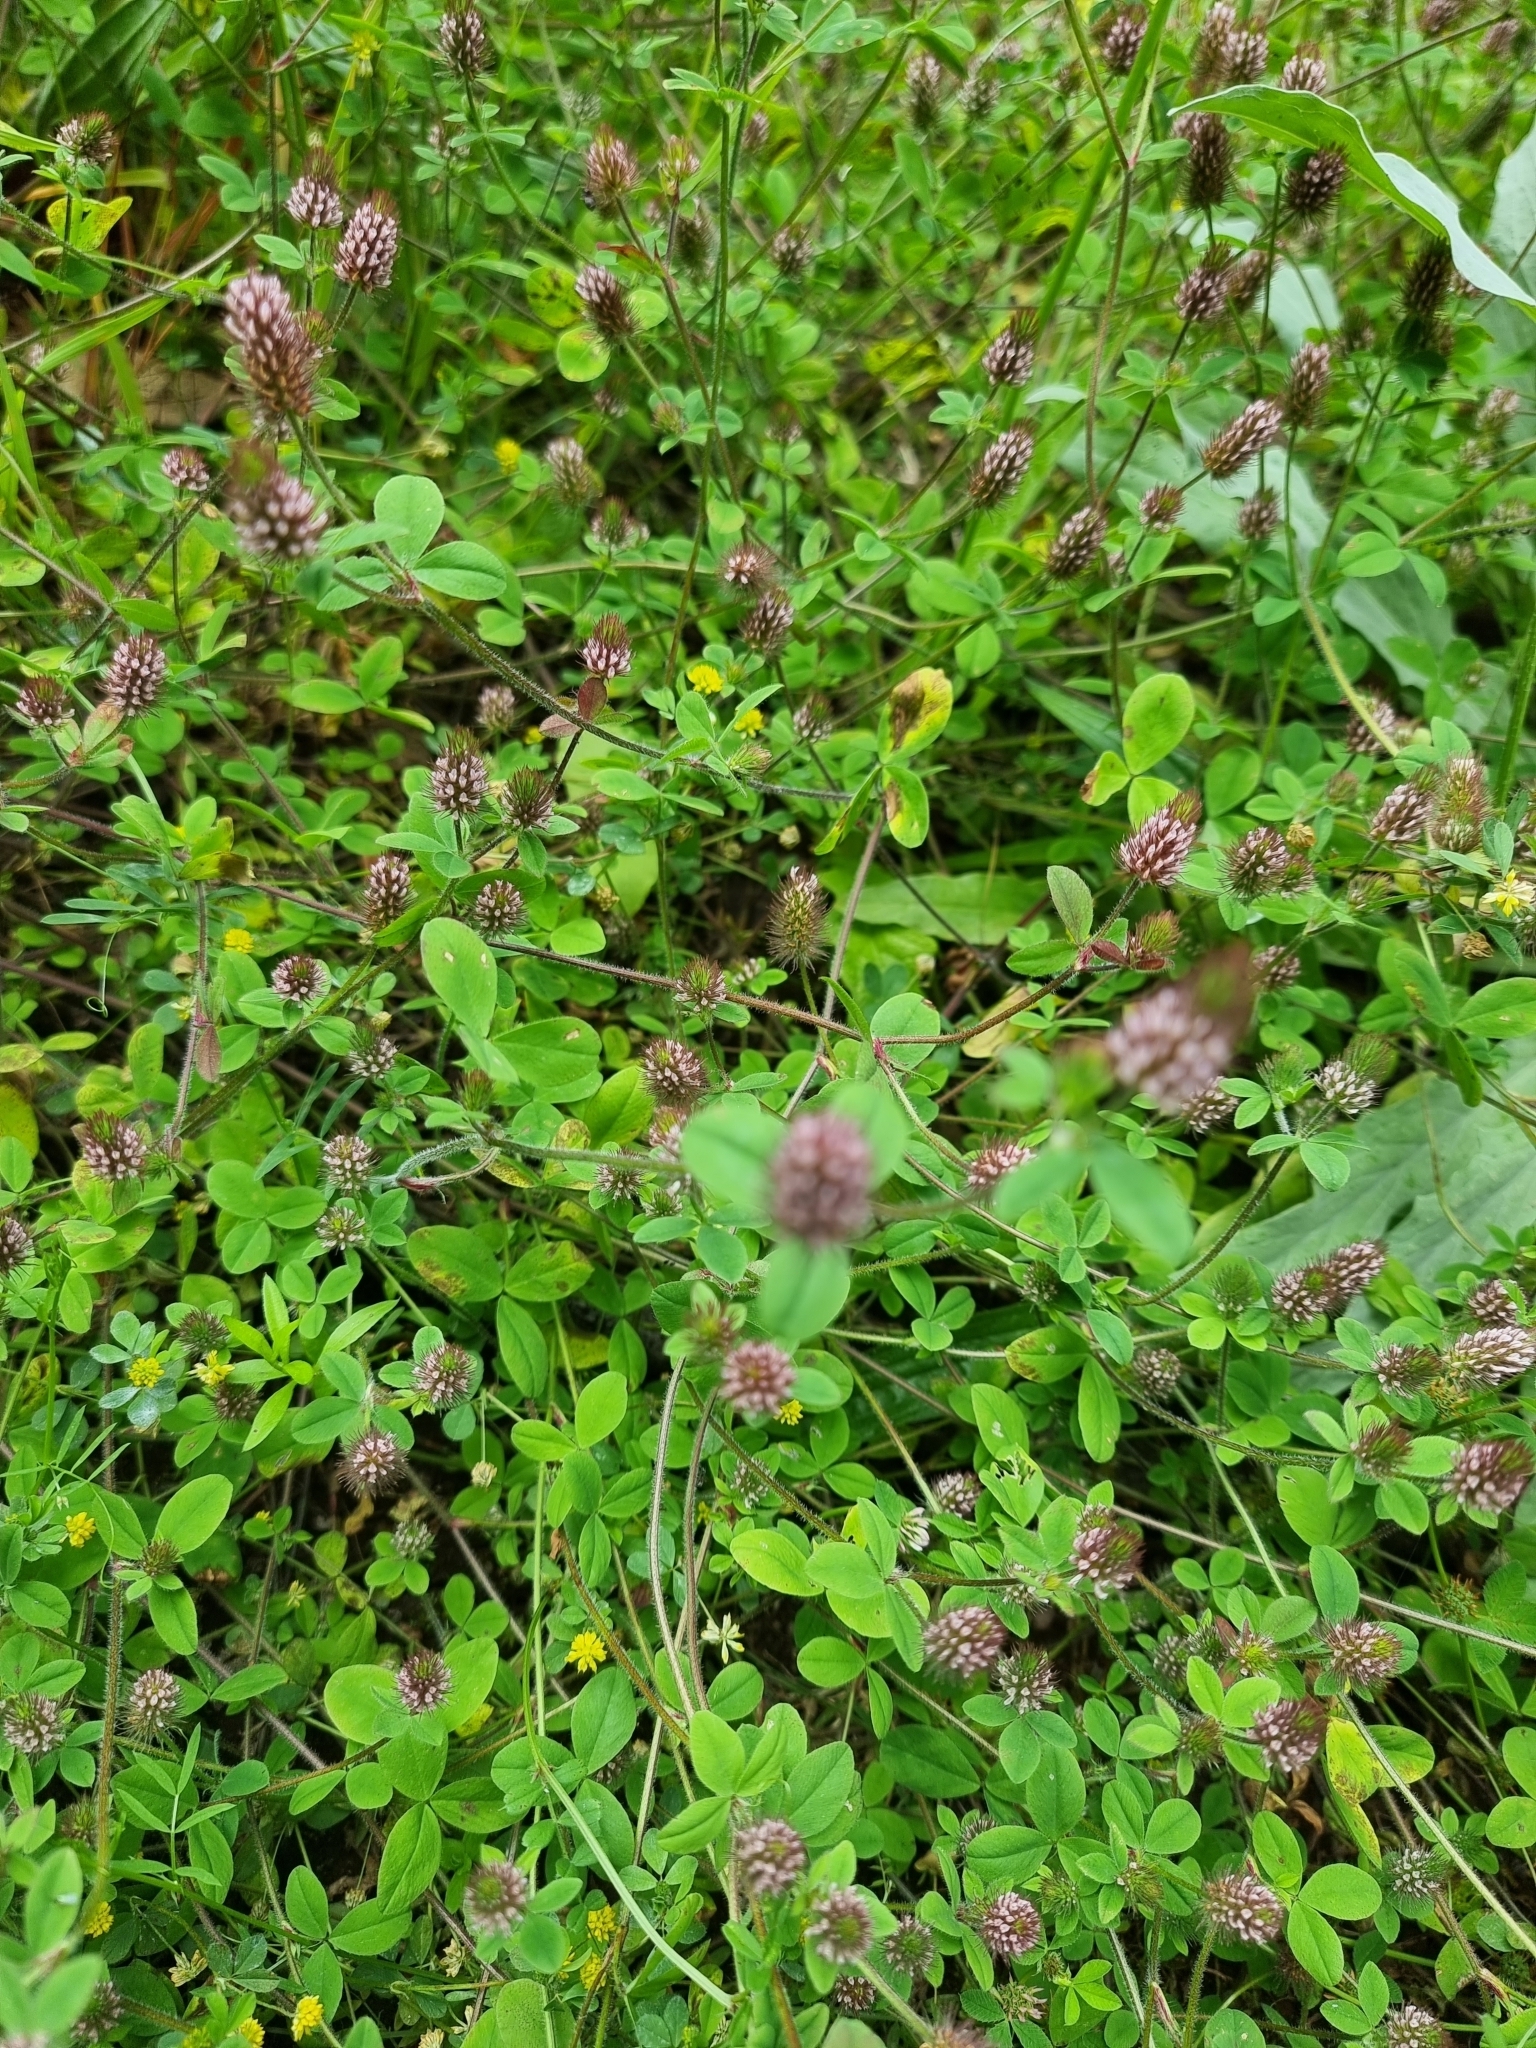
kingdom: Plantae
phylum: Tracheophyta
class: Magnoliopsida
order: Fabales
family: Fabaceae
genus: Trifolium
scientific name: Trifolium ligusticum
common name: Ligurian clover
